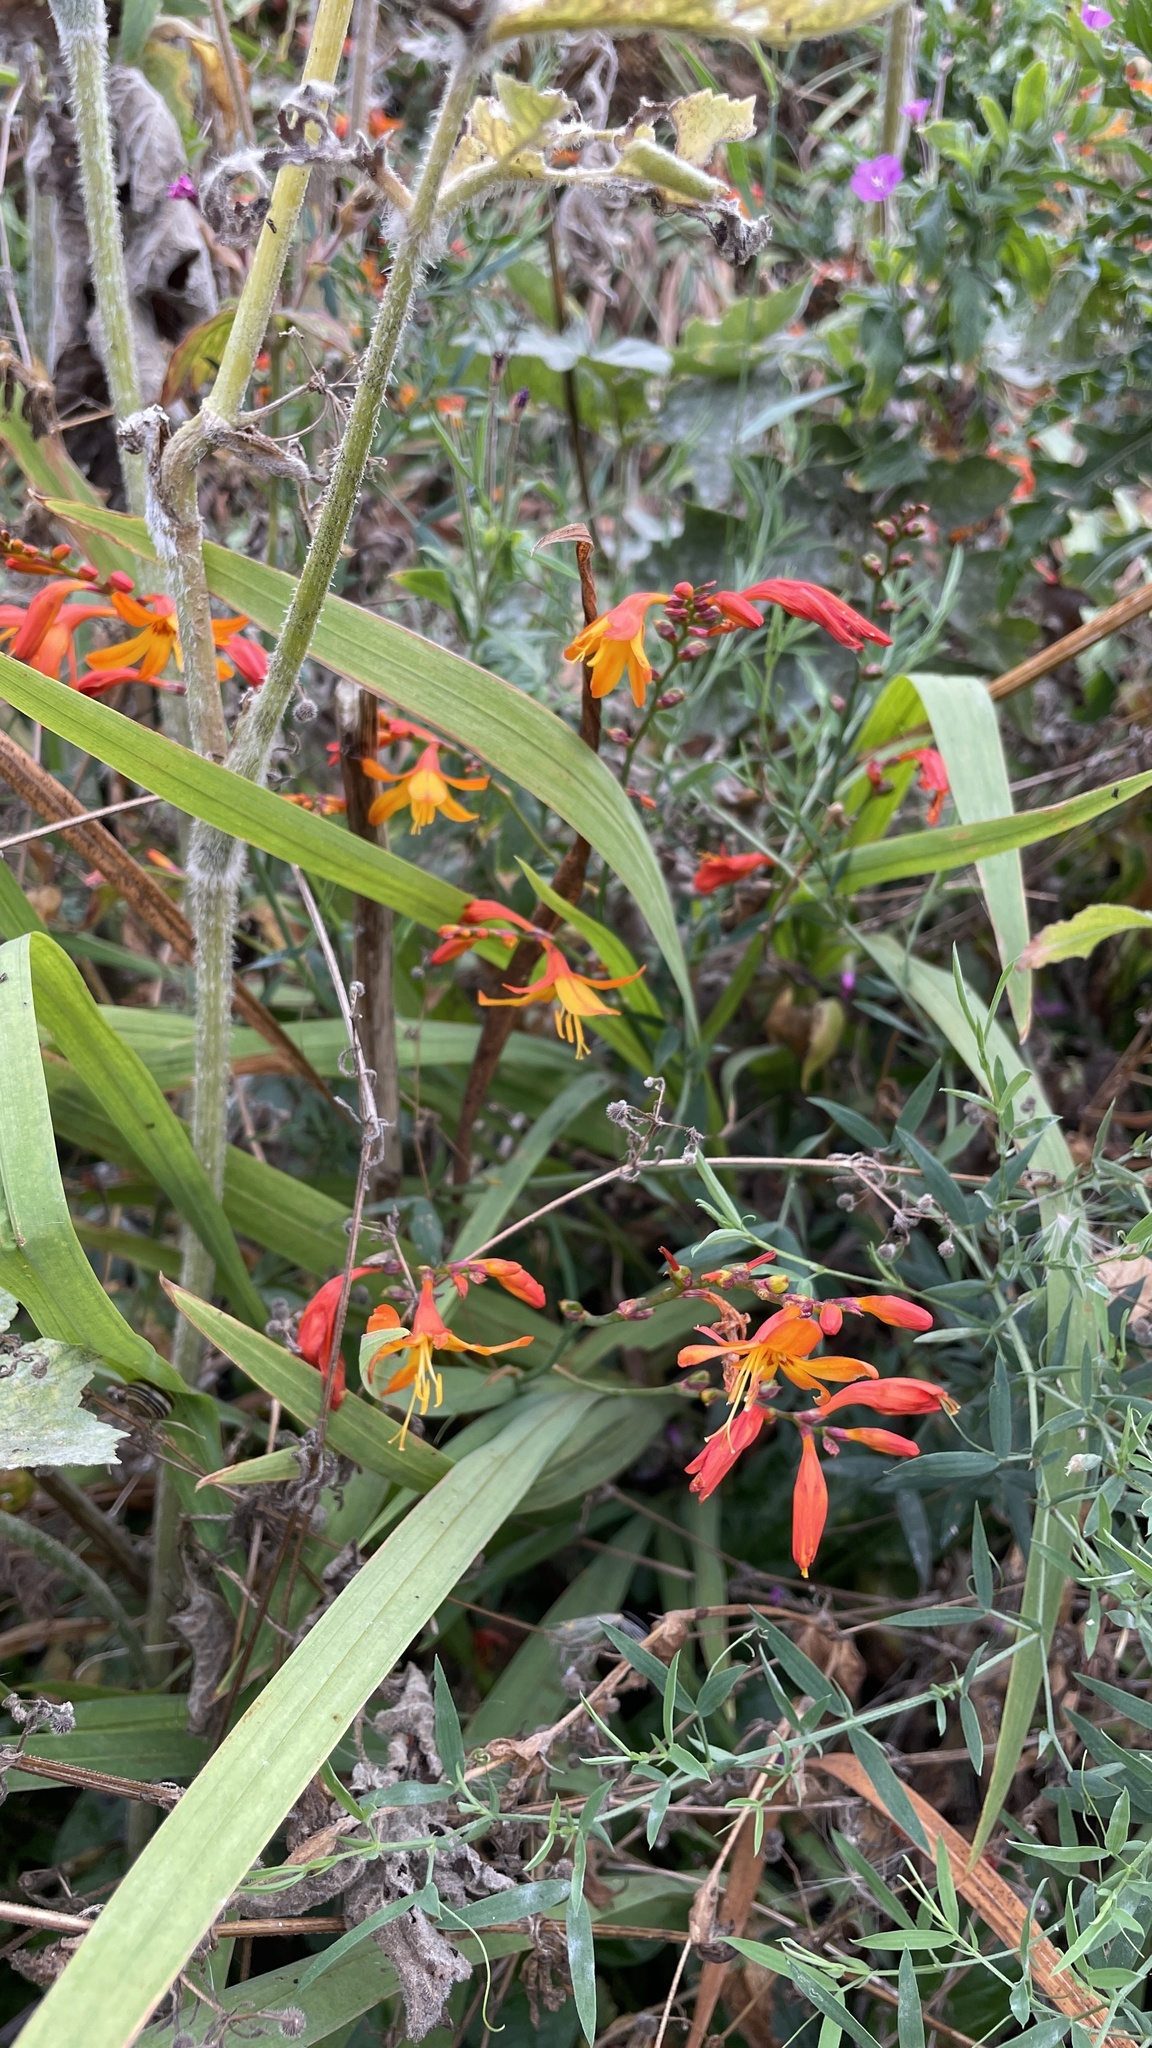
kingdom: Plantae
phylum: Tracheophyta
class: Liliopsida
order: Asparagales
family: Iridaceae
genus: Crocosmia
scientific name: Crocosmia crocosmiiflora
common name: Montbretia
